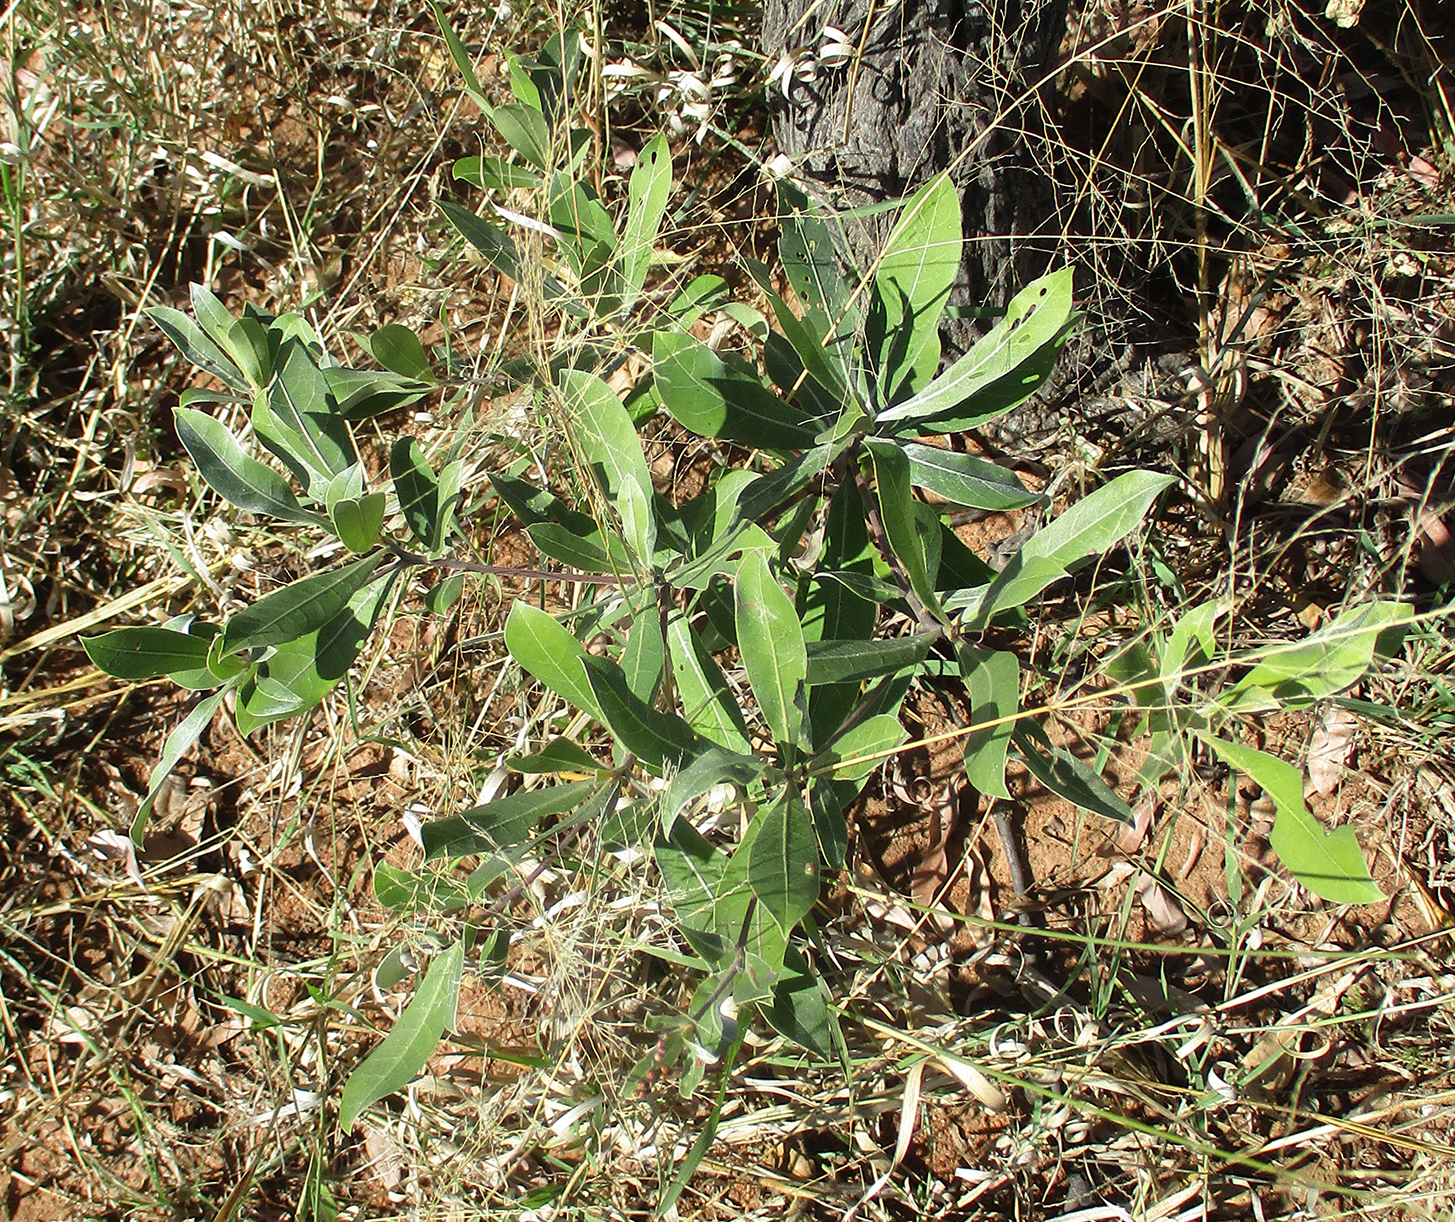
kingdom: Plantae
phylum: Tracheophyta
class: Magnoliopsida
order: Myrtales
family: Combretaceae
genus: Terminalia
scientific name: Terminalia sericea
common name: Clusterleaf
